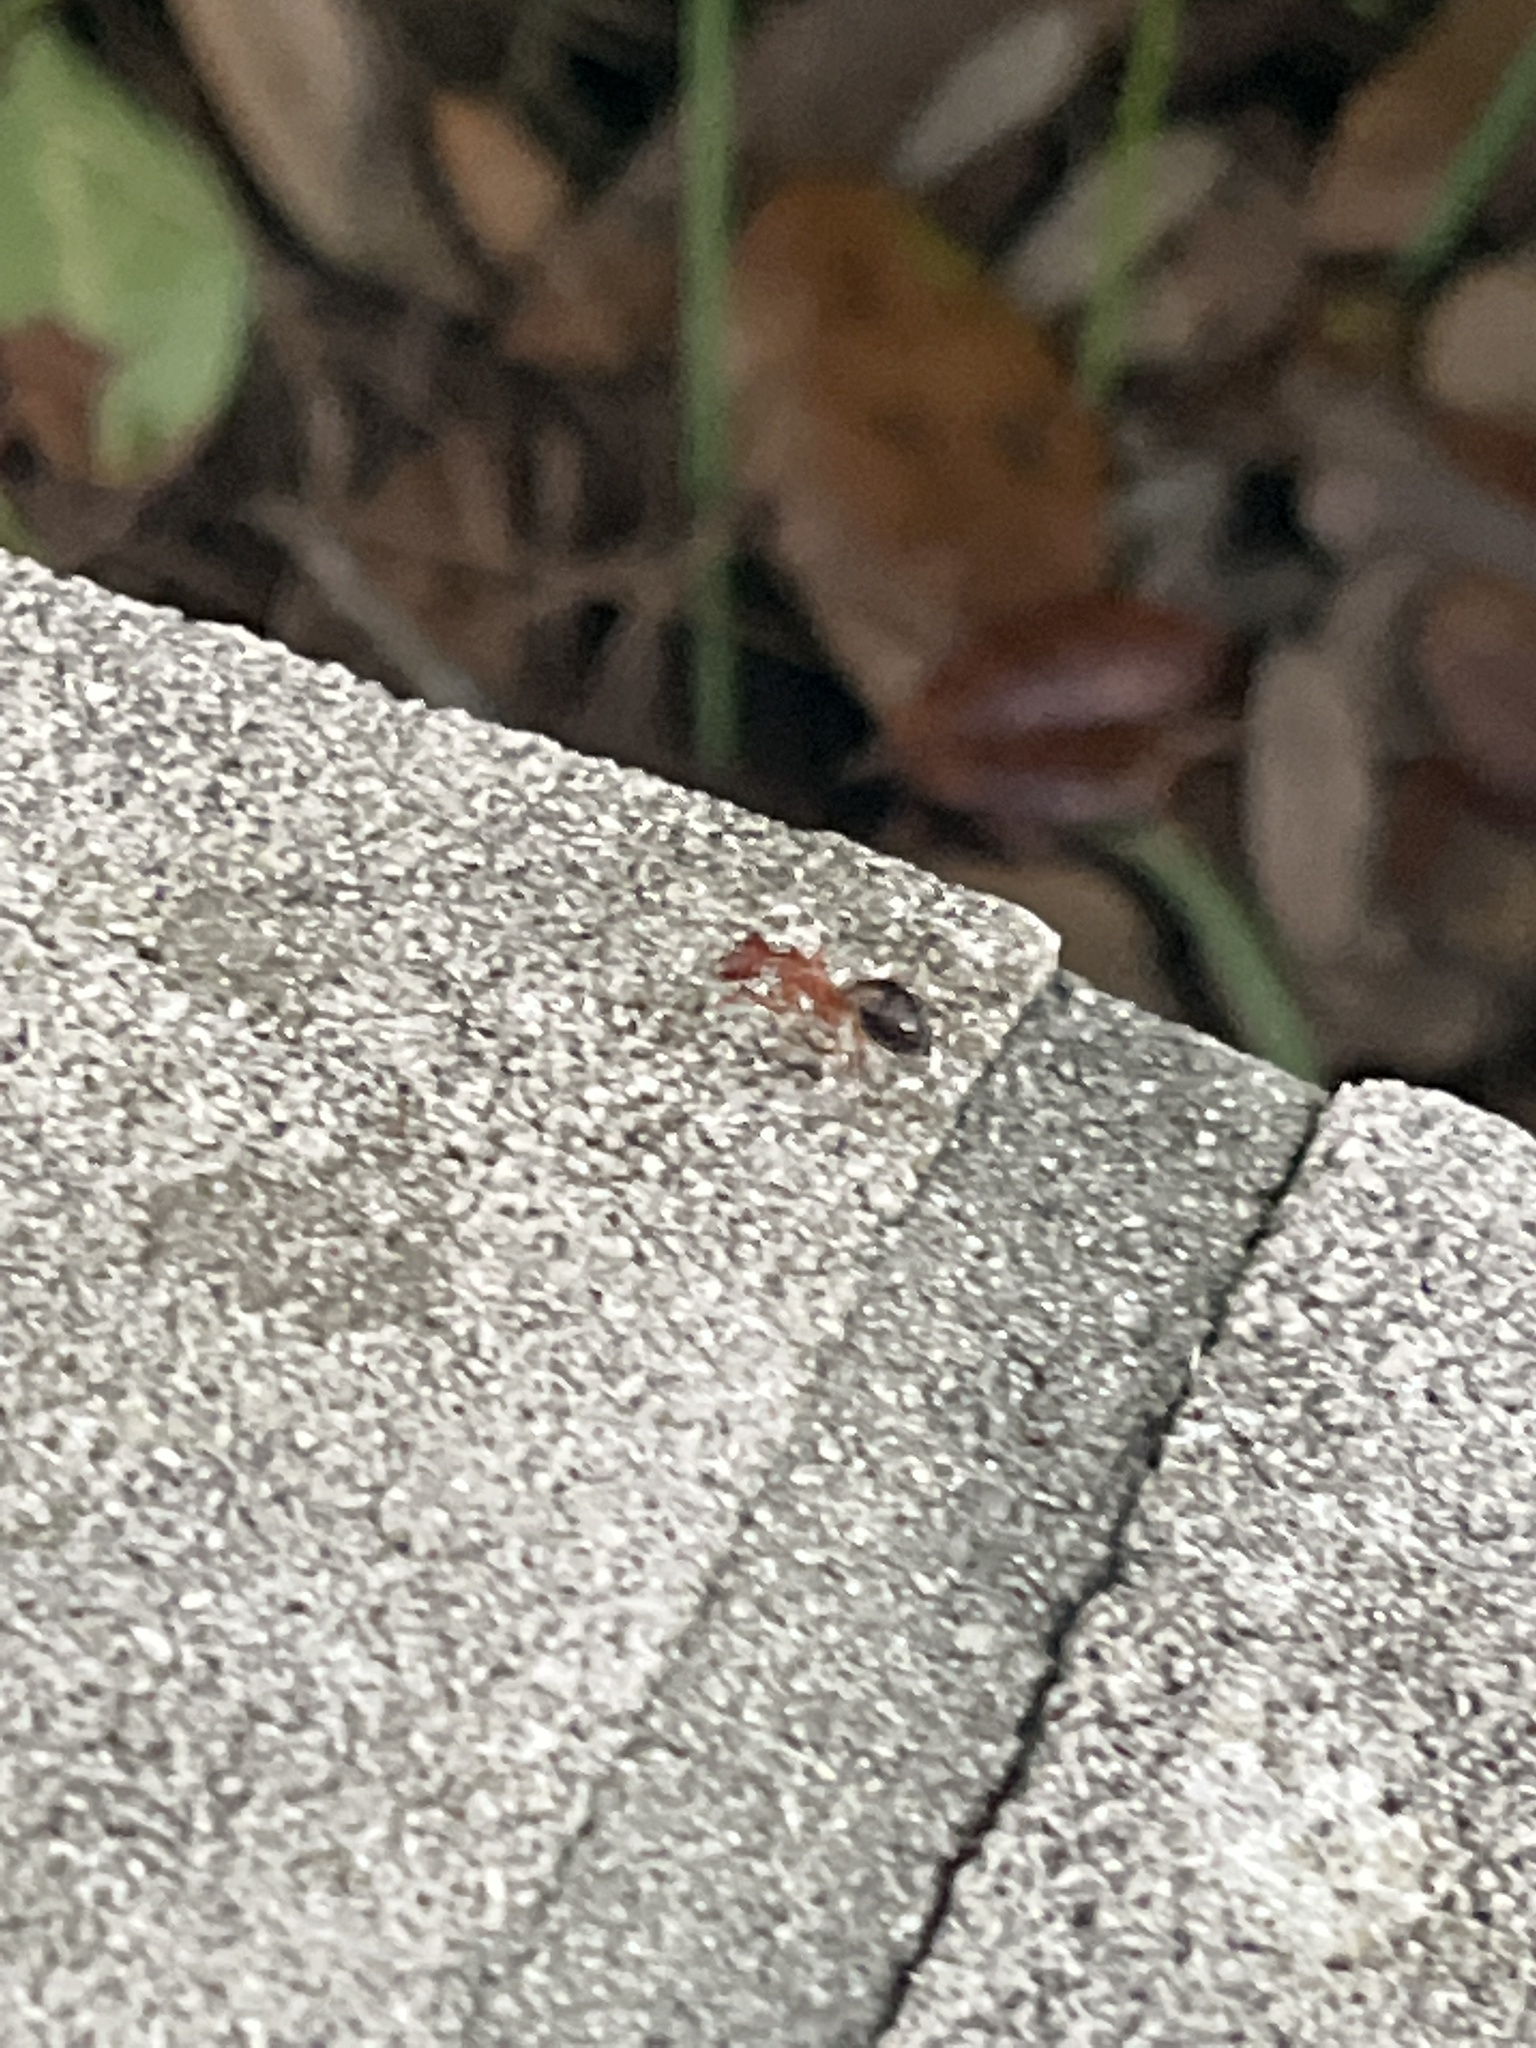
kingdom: Animalia
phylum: Arthropoda
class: Insecta
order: Hymenoptera
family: Formicidae
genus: Camponotus
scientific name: Camponotus floridanus
